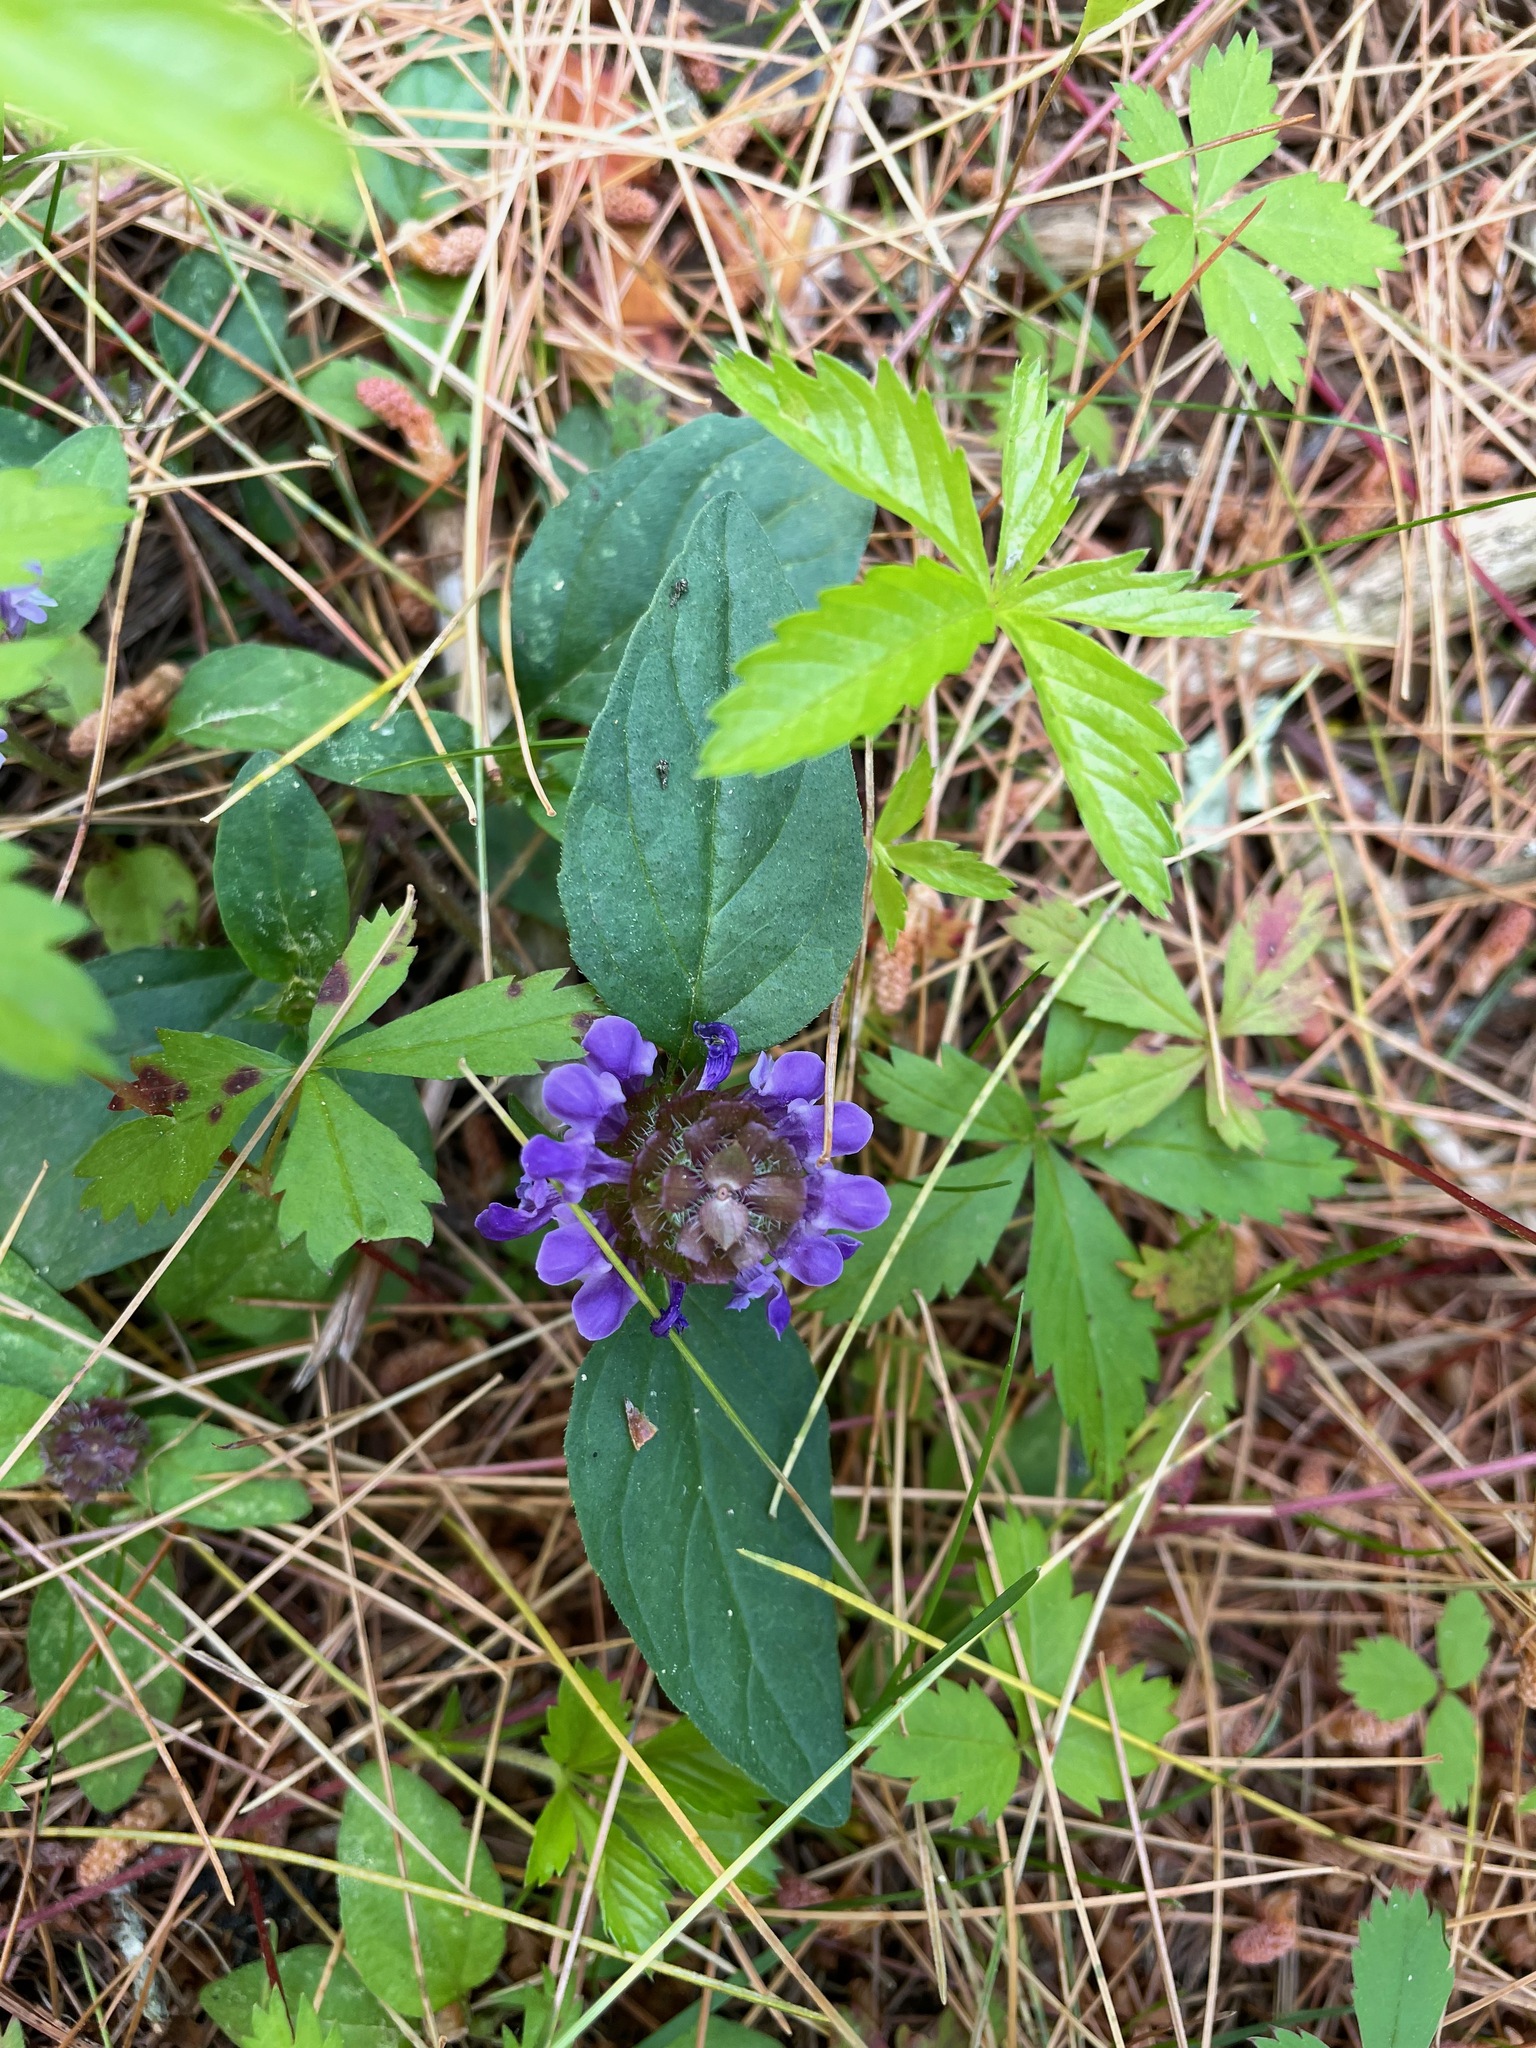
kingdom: Plantae
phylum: Tracheophyta
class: Magnoliopsida
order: Lamiales
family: Lamiaceae
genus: Prunella
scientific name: Prunella vulgaris
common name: Heal-all
